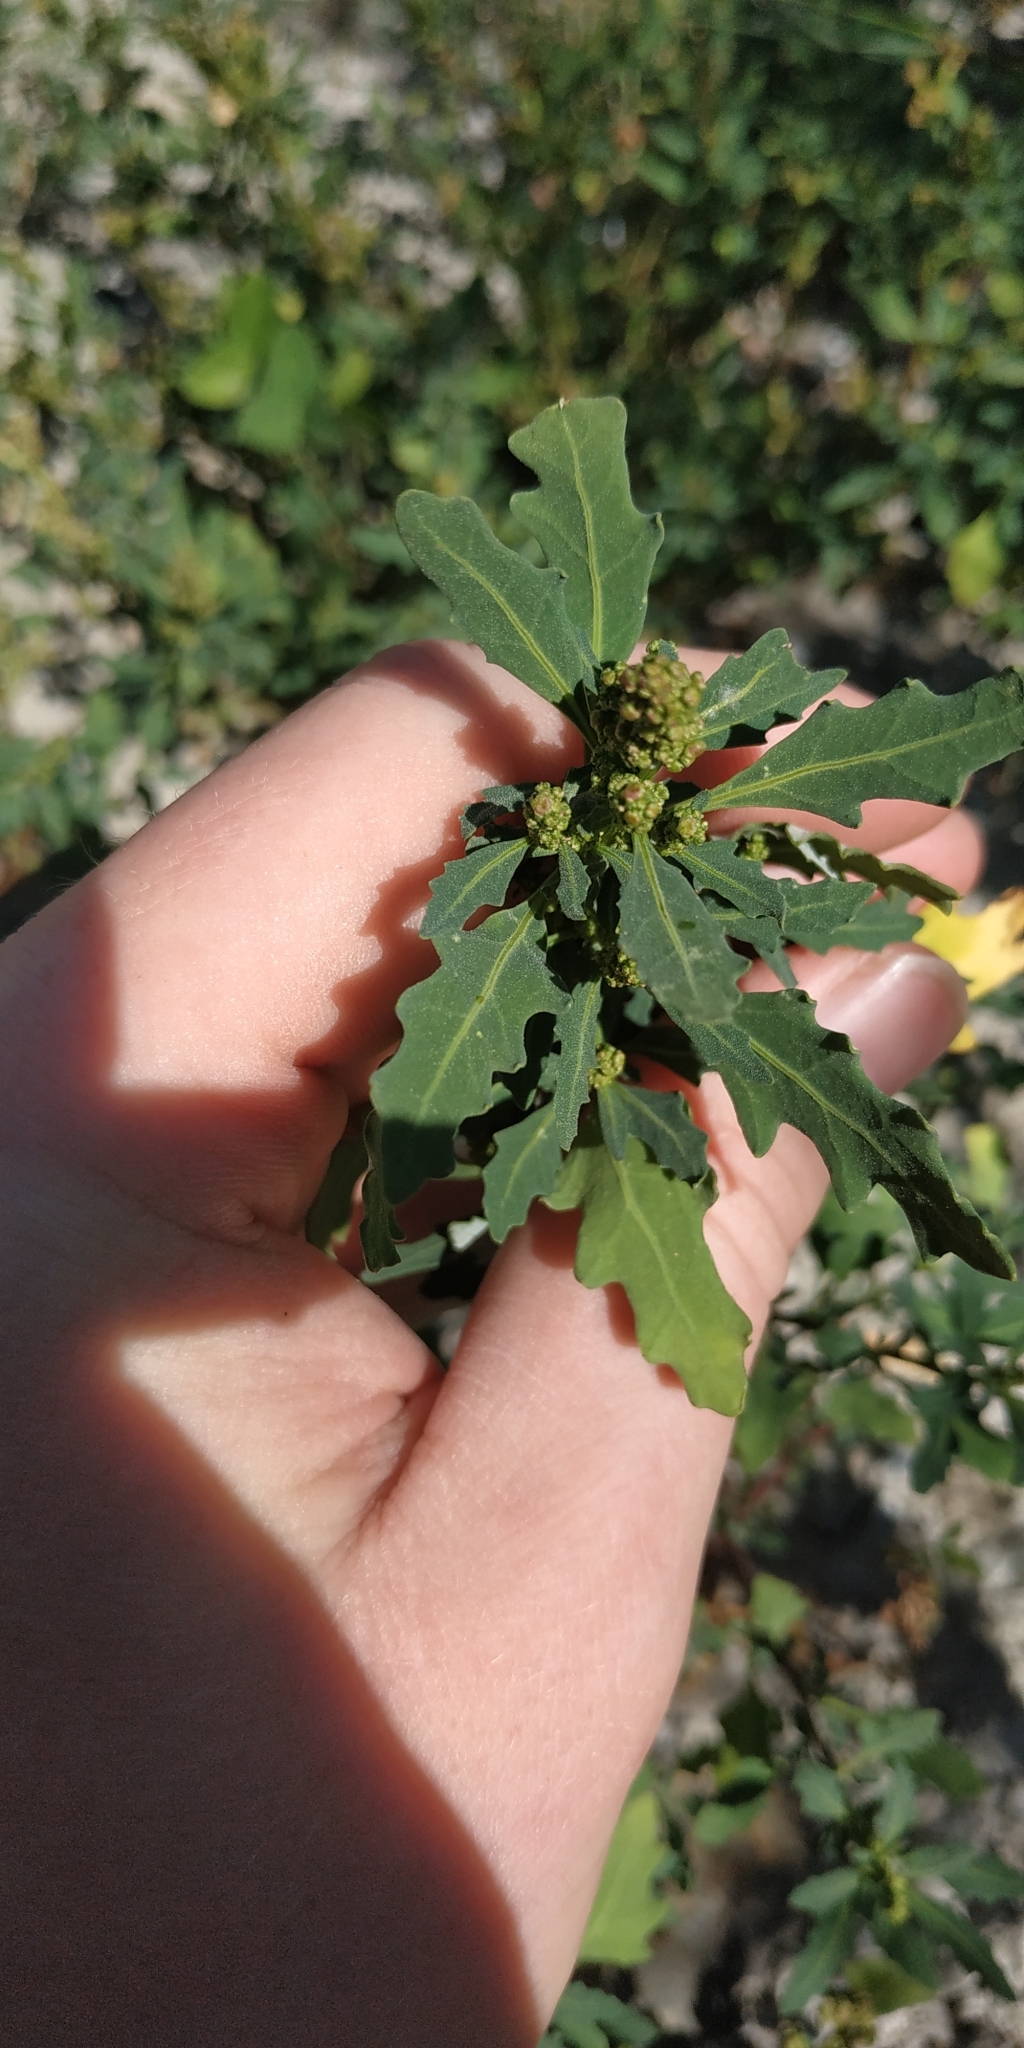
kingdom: Plantae
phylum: Tracheophyta
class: Magnoliopsida
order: Caryophyllales
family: Amaranthaceae
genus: Oxybasis
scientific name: Oxybasis glauca
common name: Glaucous goosefoot
